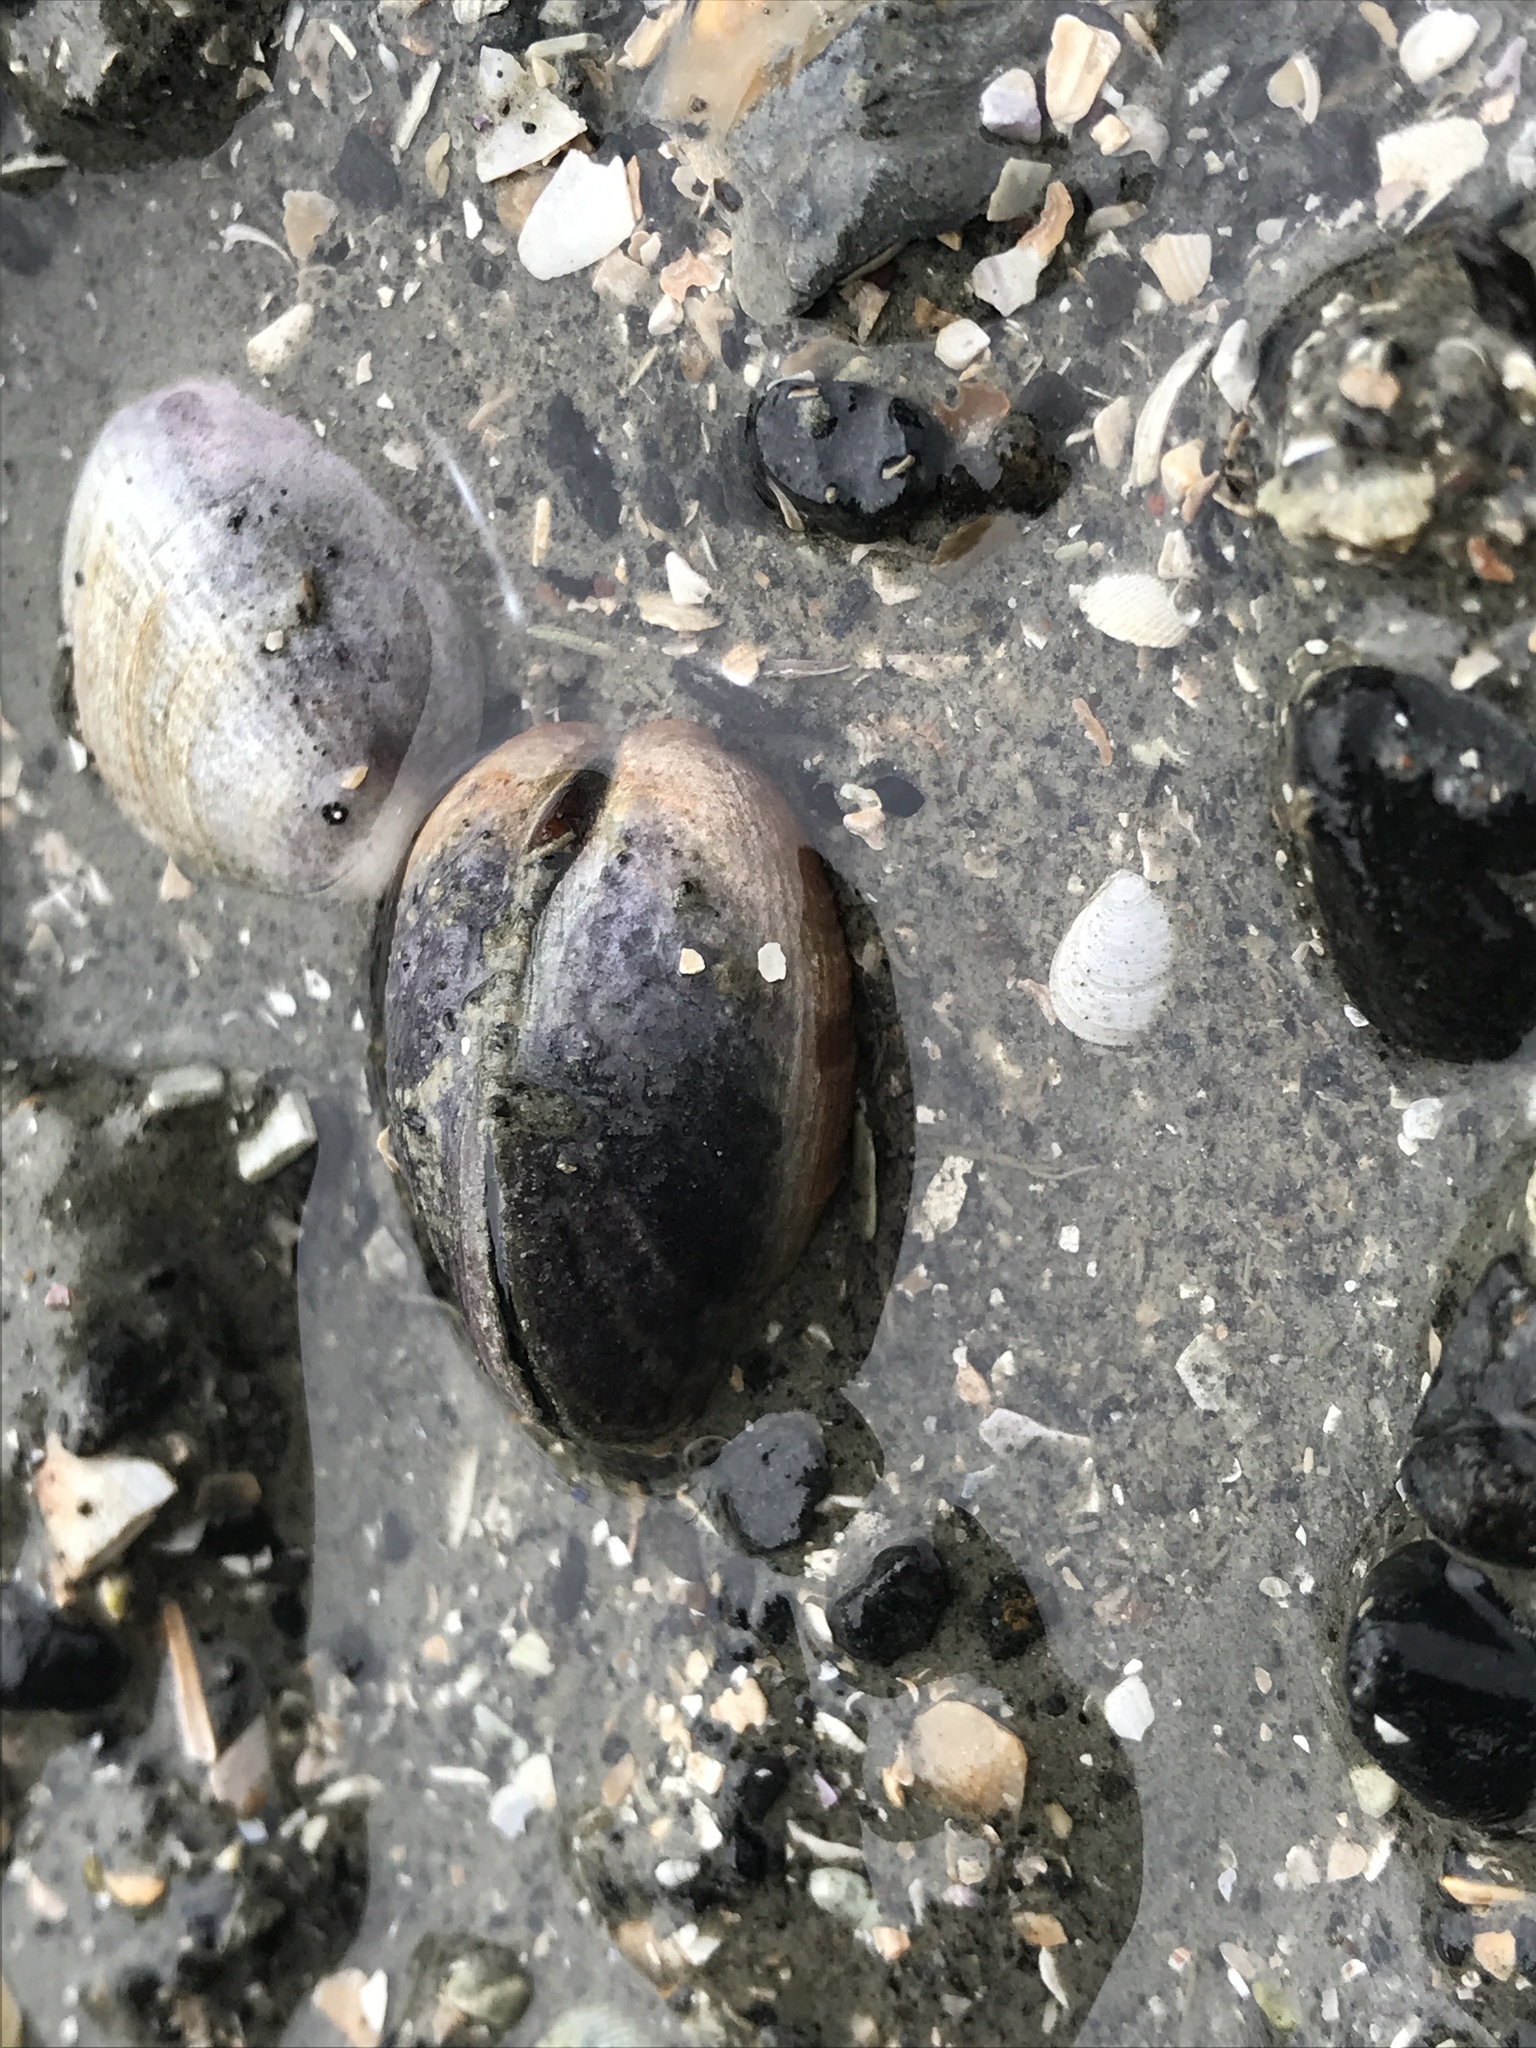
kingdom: Animalia
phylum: Mollusca
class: Bivalvia
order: Venerida
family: Veneridae
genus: Austrovenus
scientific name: Austrovenus stutchburyi
